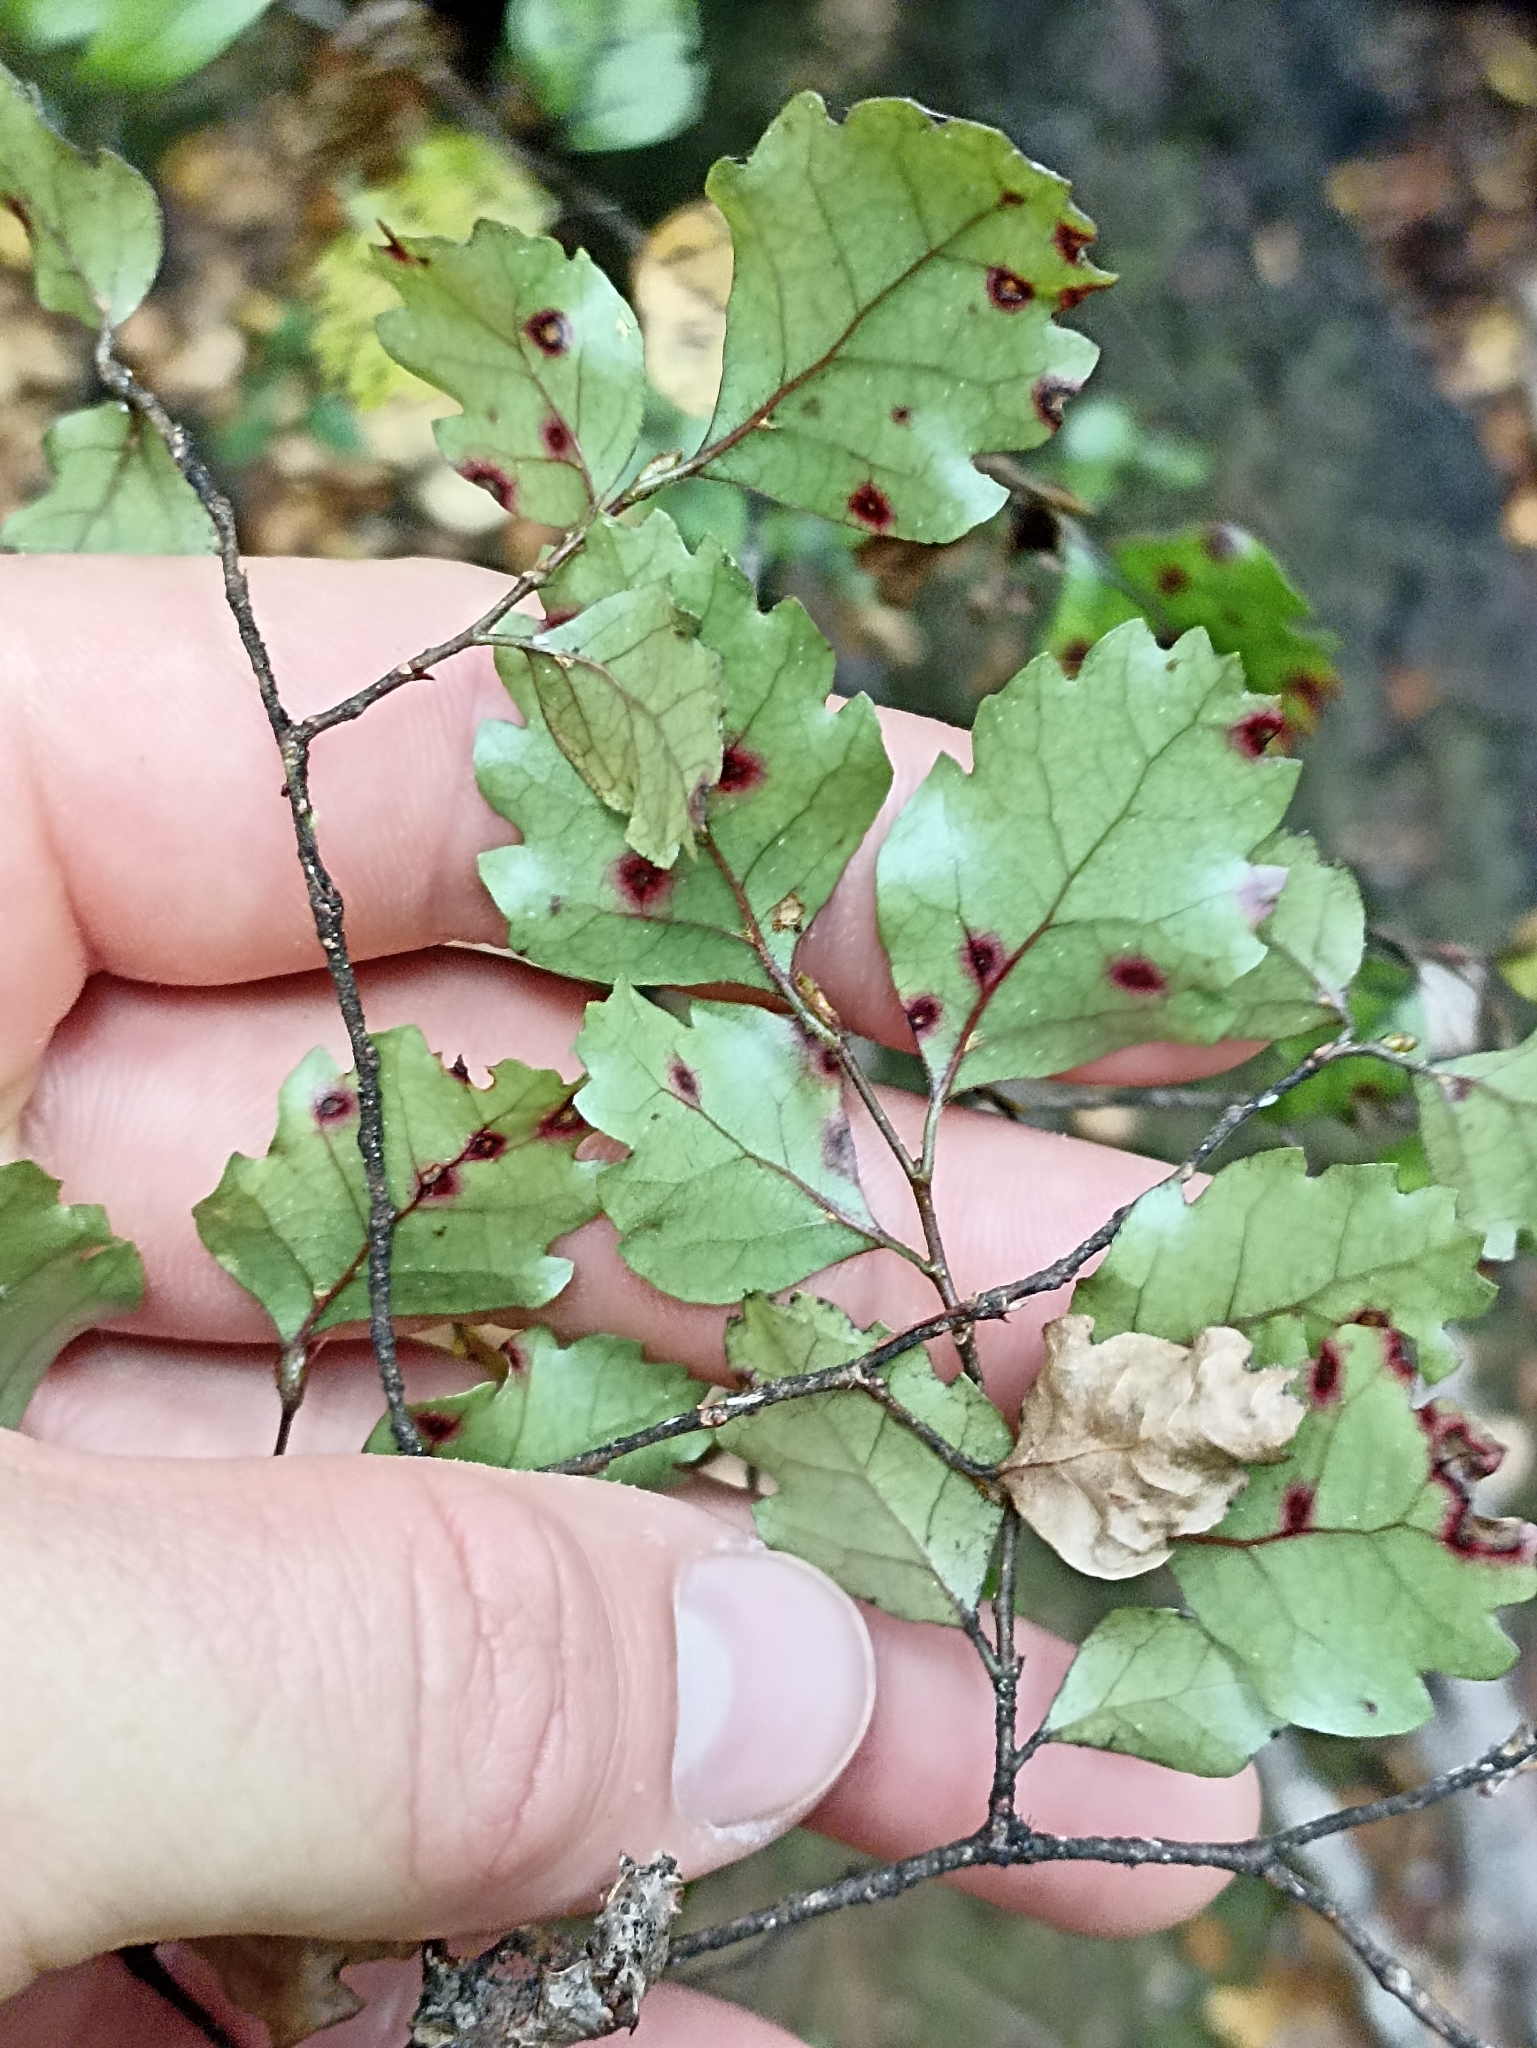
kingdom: Plantae
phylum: Tracheophyta
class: Magnoliopsida
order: Fagales
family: Nothofagaceae
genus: Nothofagus
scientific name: Nothofagus fusca
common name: Red beech
